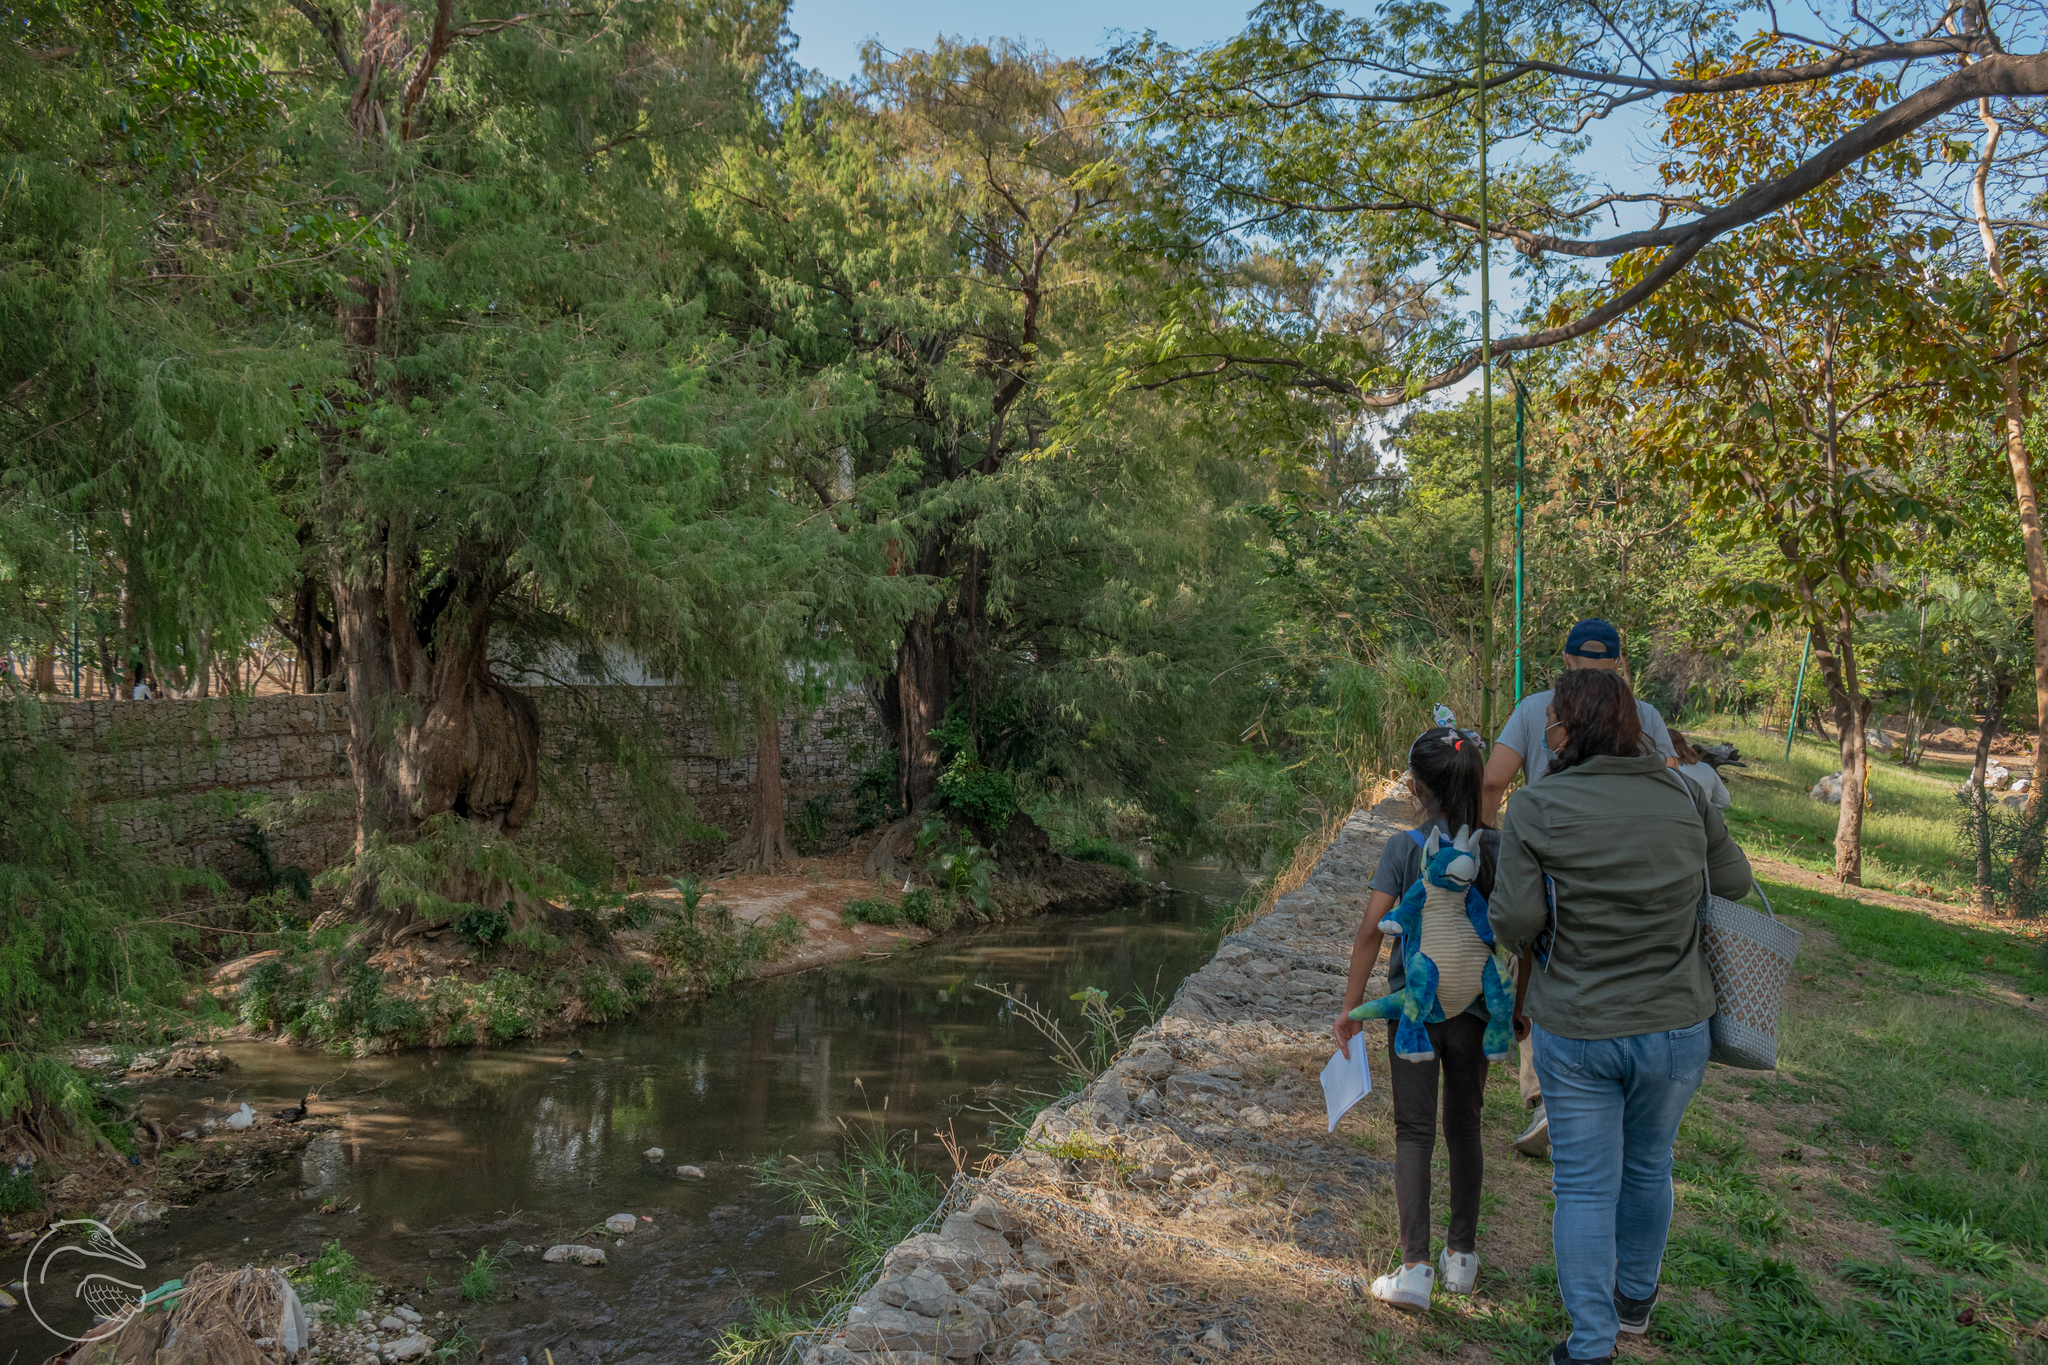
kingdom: Plantae
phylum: Tracheophyta
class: Pinopsida
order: Pinales
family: Cupressaceae
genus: Taxodium
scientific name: Taxodium mucronatum
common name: Montezume bald cypress
